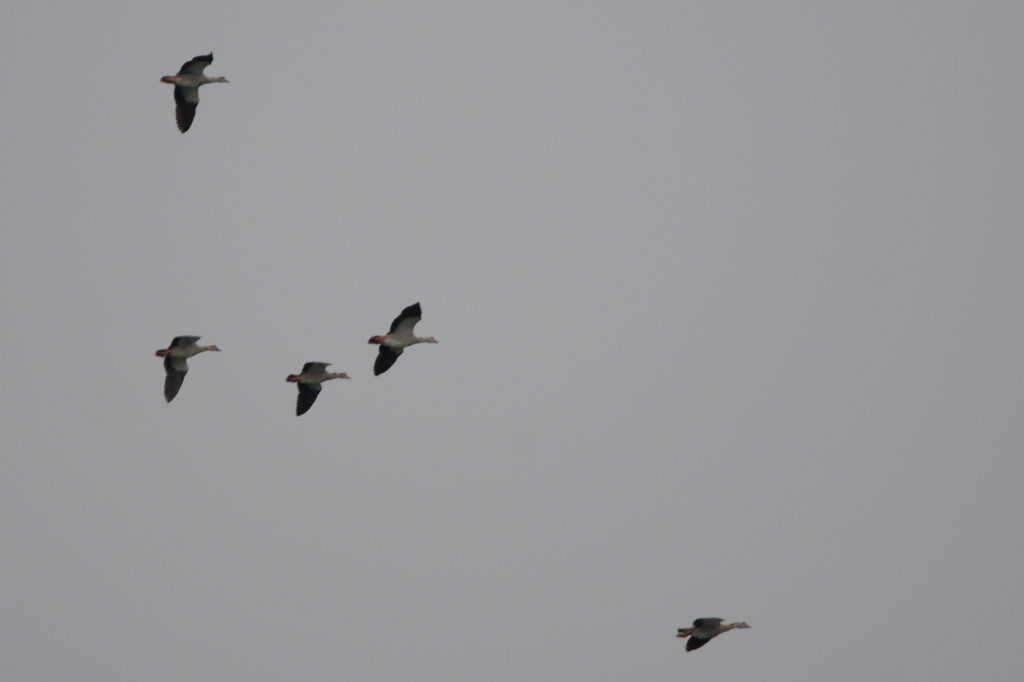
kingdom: Animalia
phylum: Chordata
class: Aves
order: Anseriformes
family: Anatidae
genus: Alopochen
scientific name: Alopochen aegyptiaca
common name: Egyptian goose
